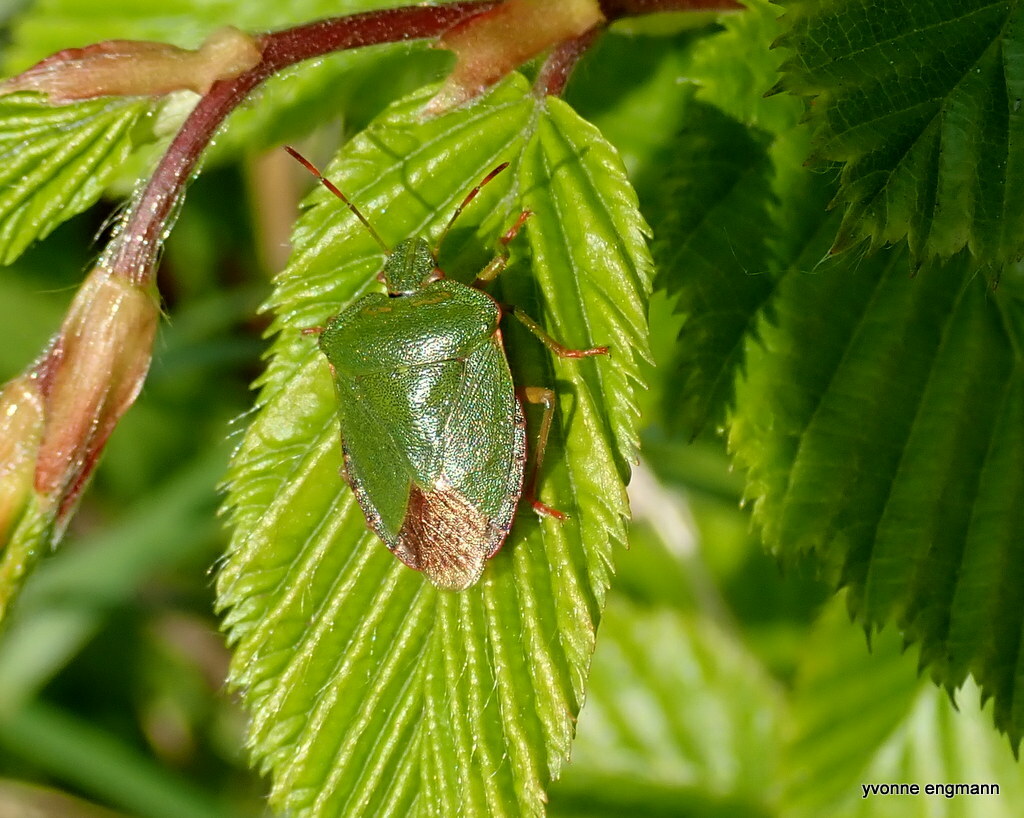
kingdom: Animalia
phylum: Arthropoda
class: Insecta
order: Hemiptera
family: Pentatomidae
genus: Palomena
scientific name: Palomena prasina
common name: Green shieldbug
